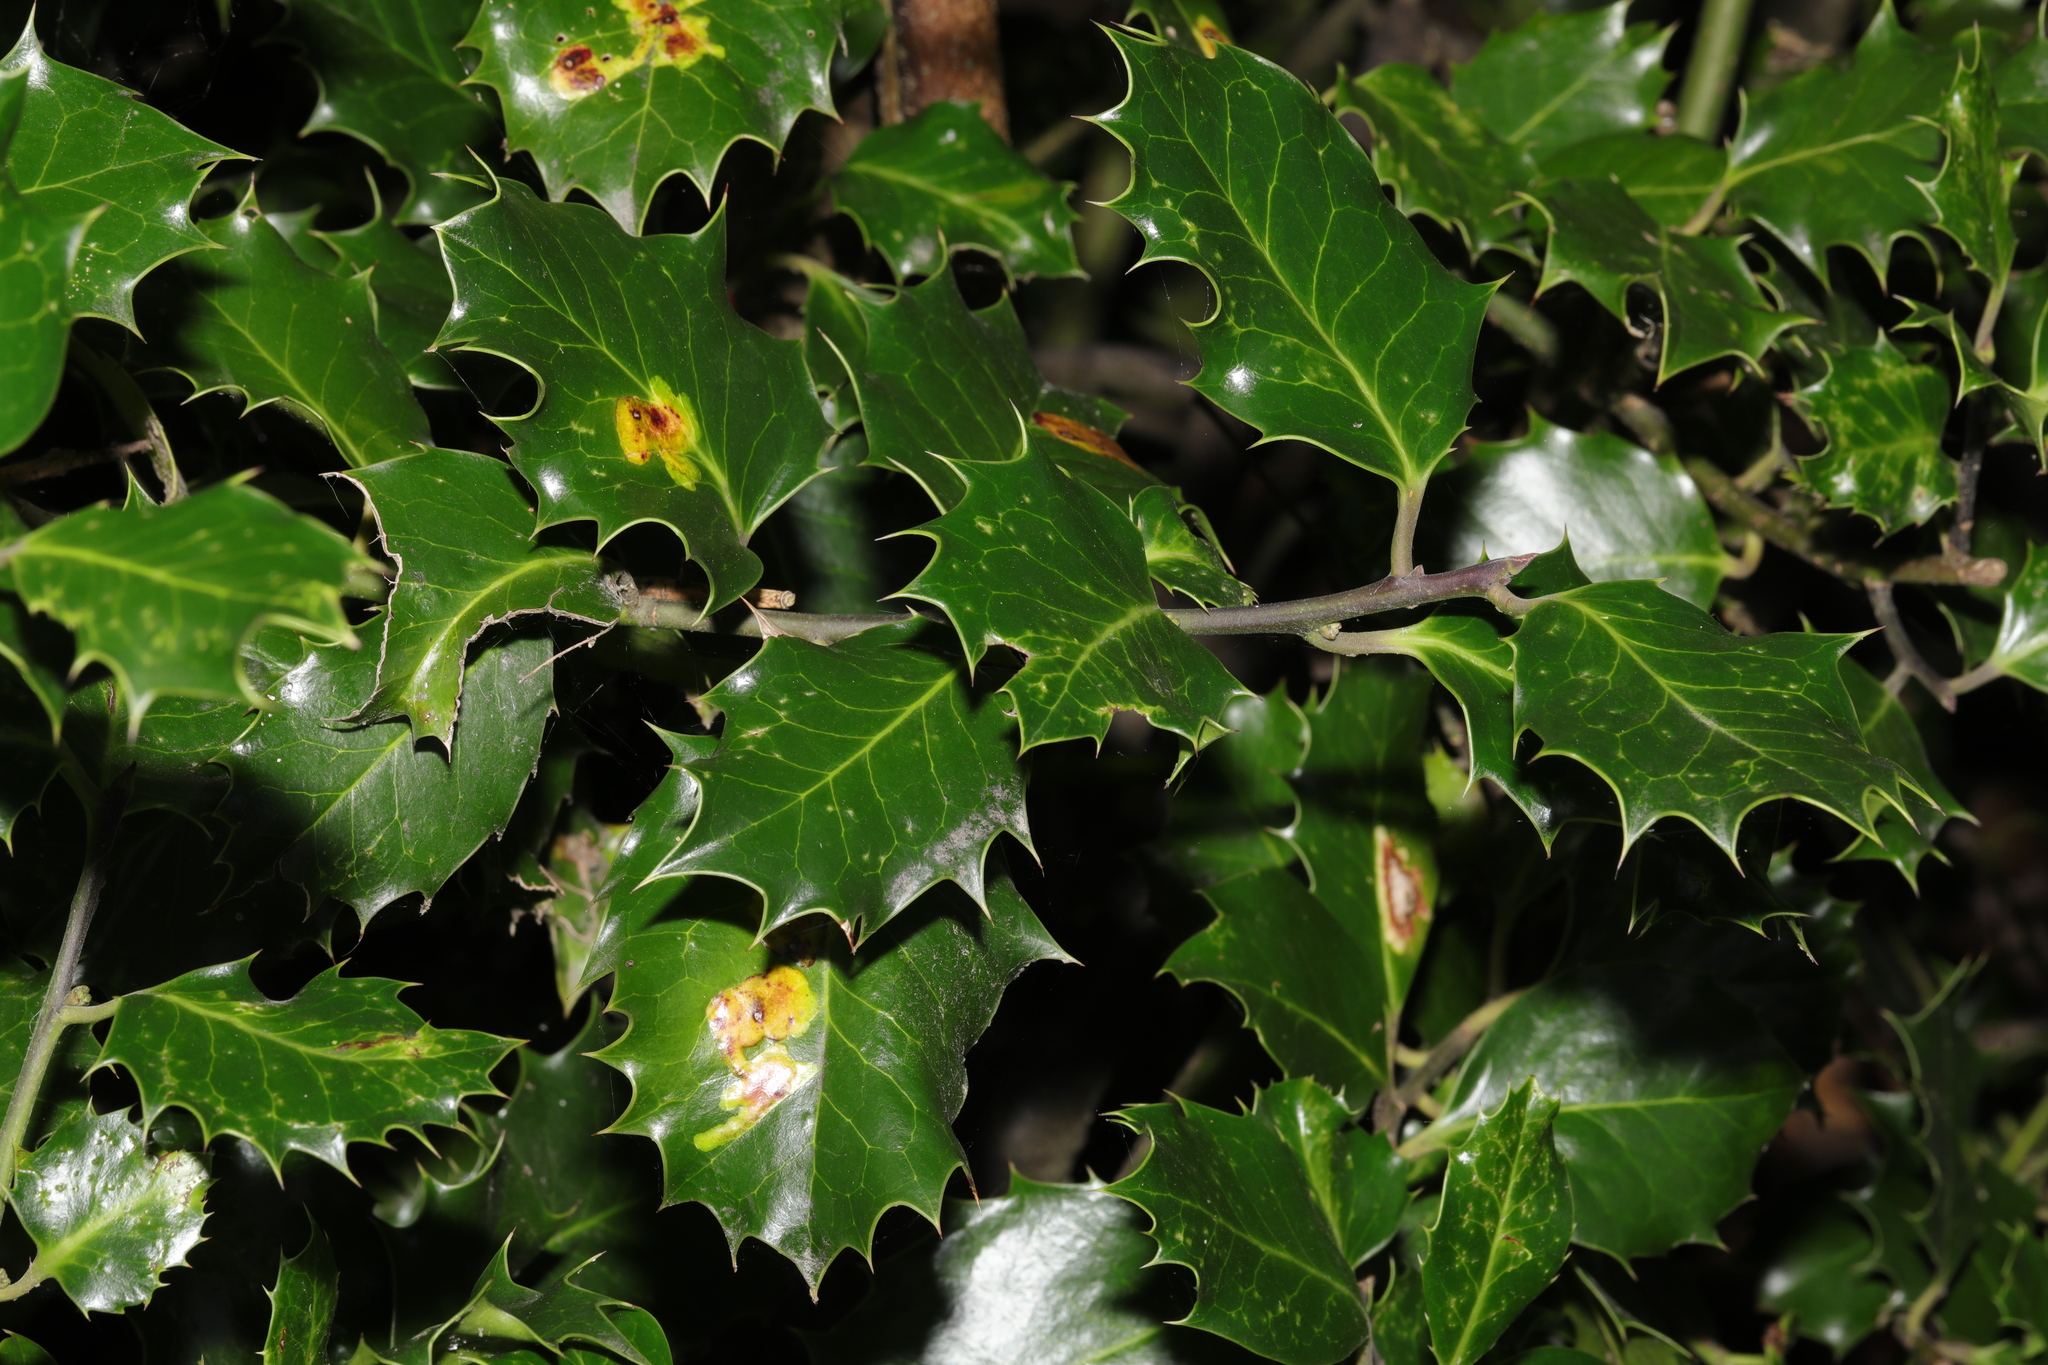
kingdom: Plantae
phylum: Tracheophyta
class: Magnoliopsida
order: Aquifoliales
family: Aquifoliaceae
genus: Ilex
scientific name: Ilex aquifolium
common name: English holly
